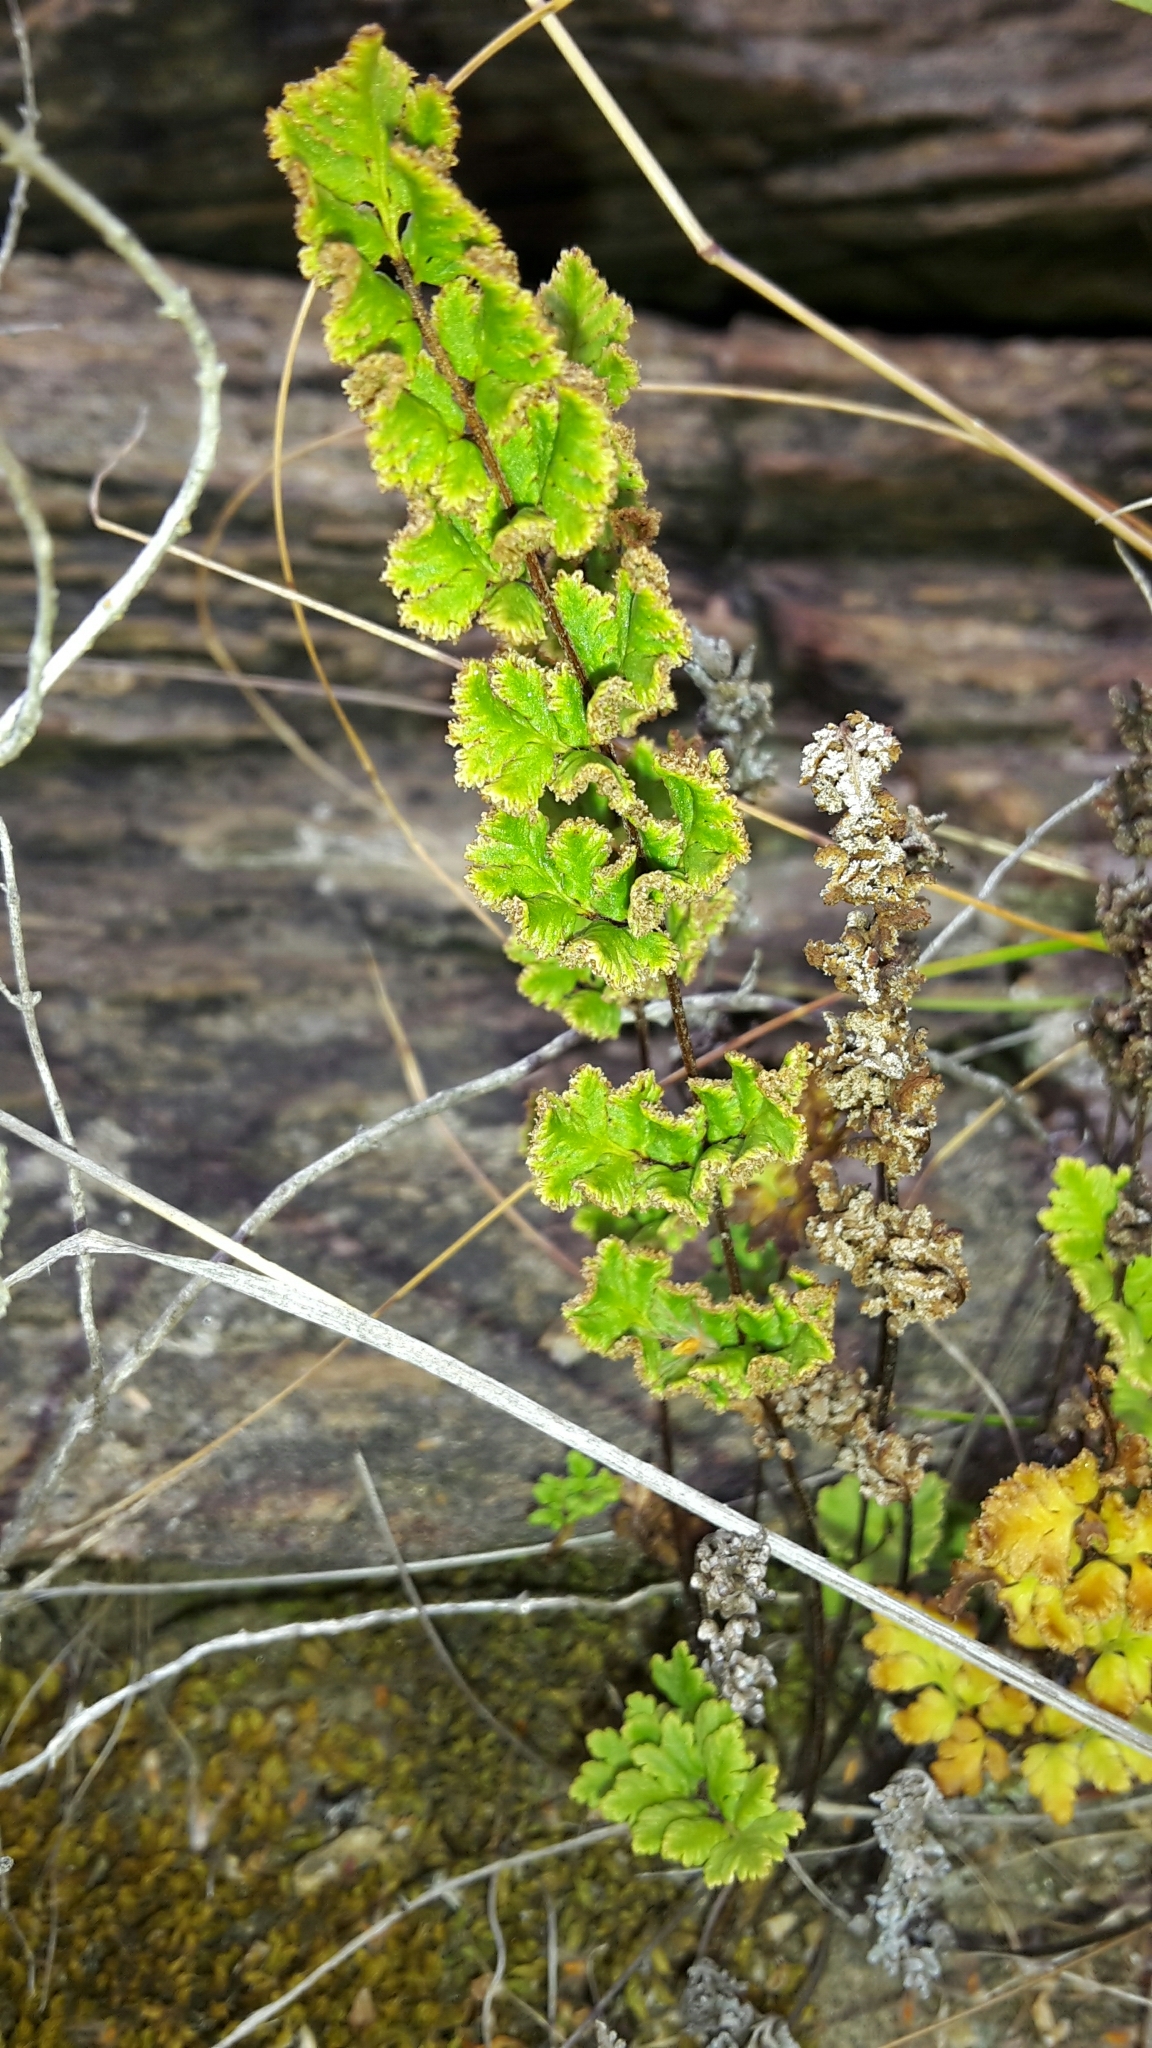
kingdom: Plantae
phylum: Tracheophyta
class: Polypodiopsida
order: Polypodiales
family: Pteridaceae
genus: Cheilanthes
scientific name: Cheilanthes sieberi
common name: Mulga fern
